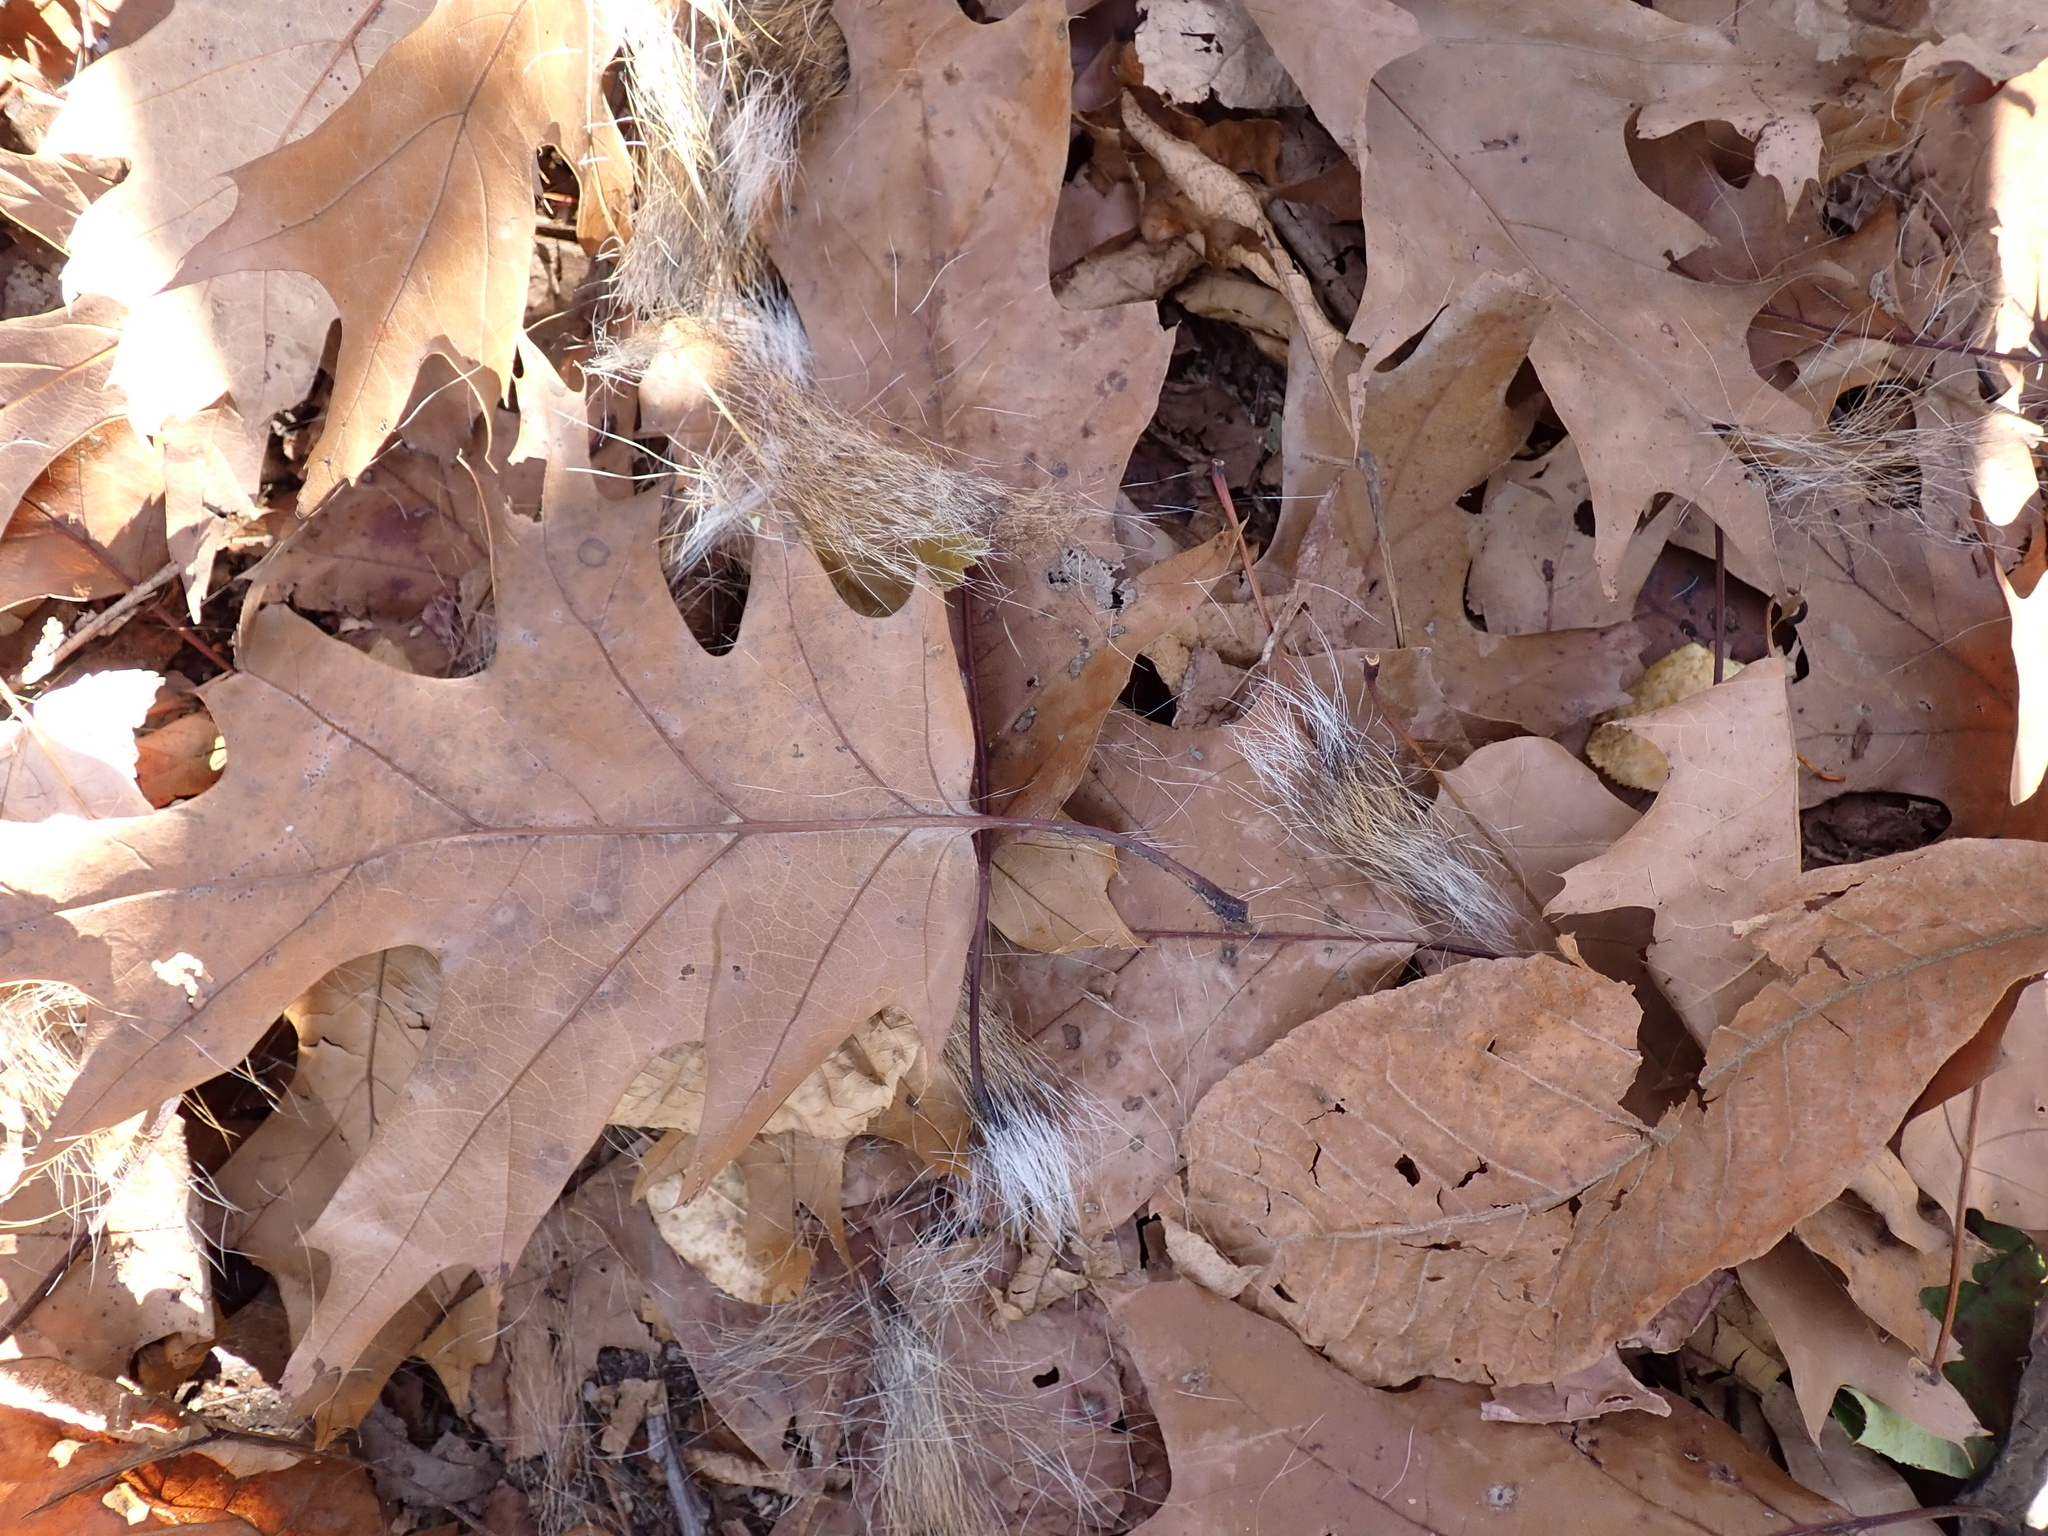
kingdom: Animalia
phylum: Chordata
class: Mammalia
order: Rodentia
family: Sciuridae
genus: Sciurus
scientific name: Sciurus carolinensis
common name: Eastern gray squirrel
